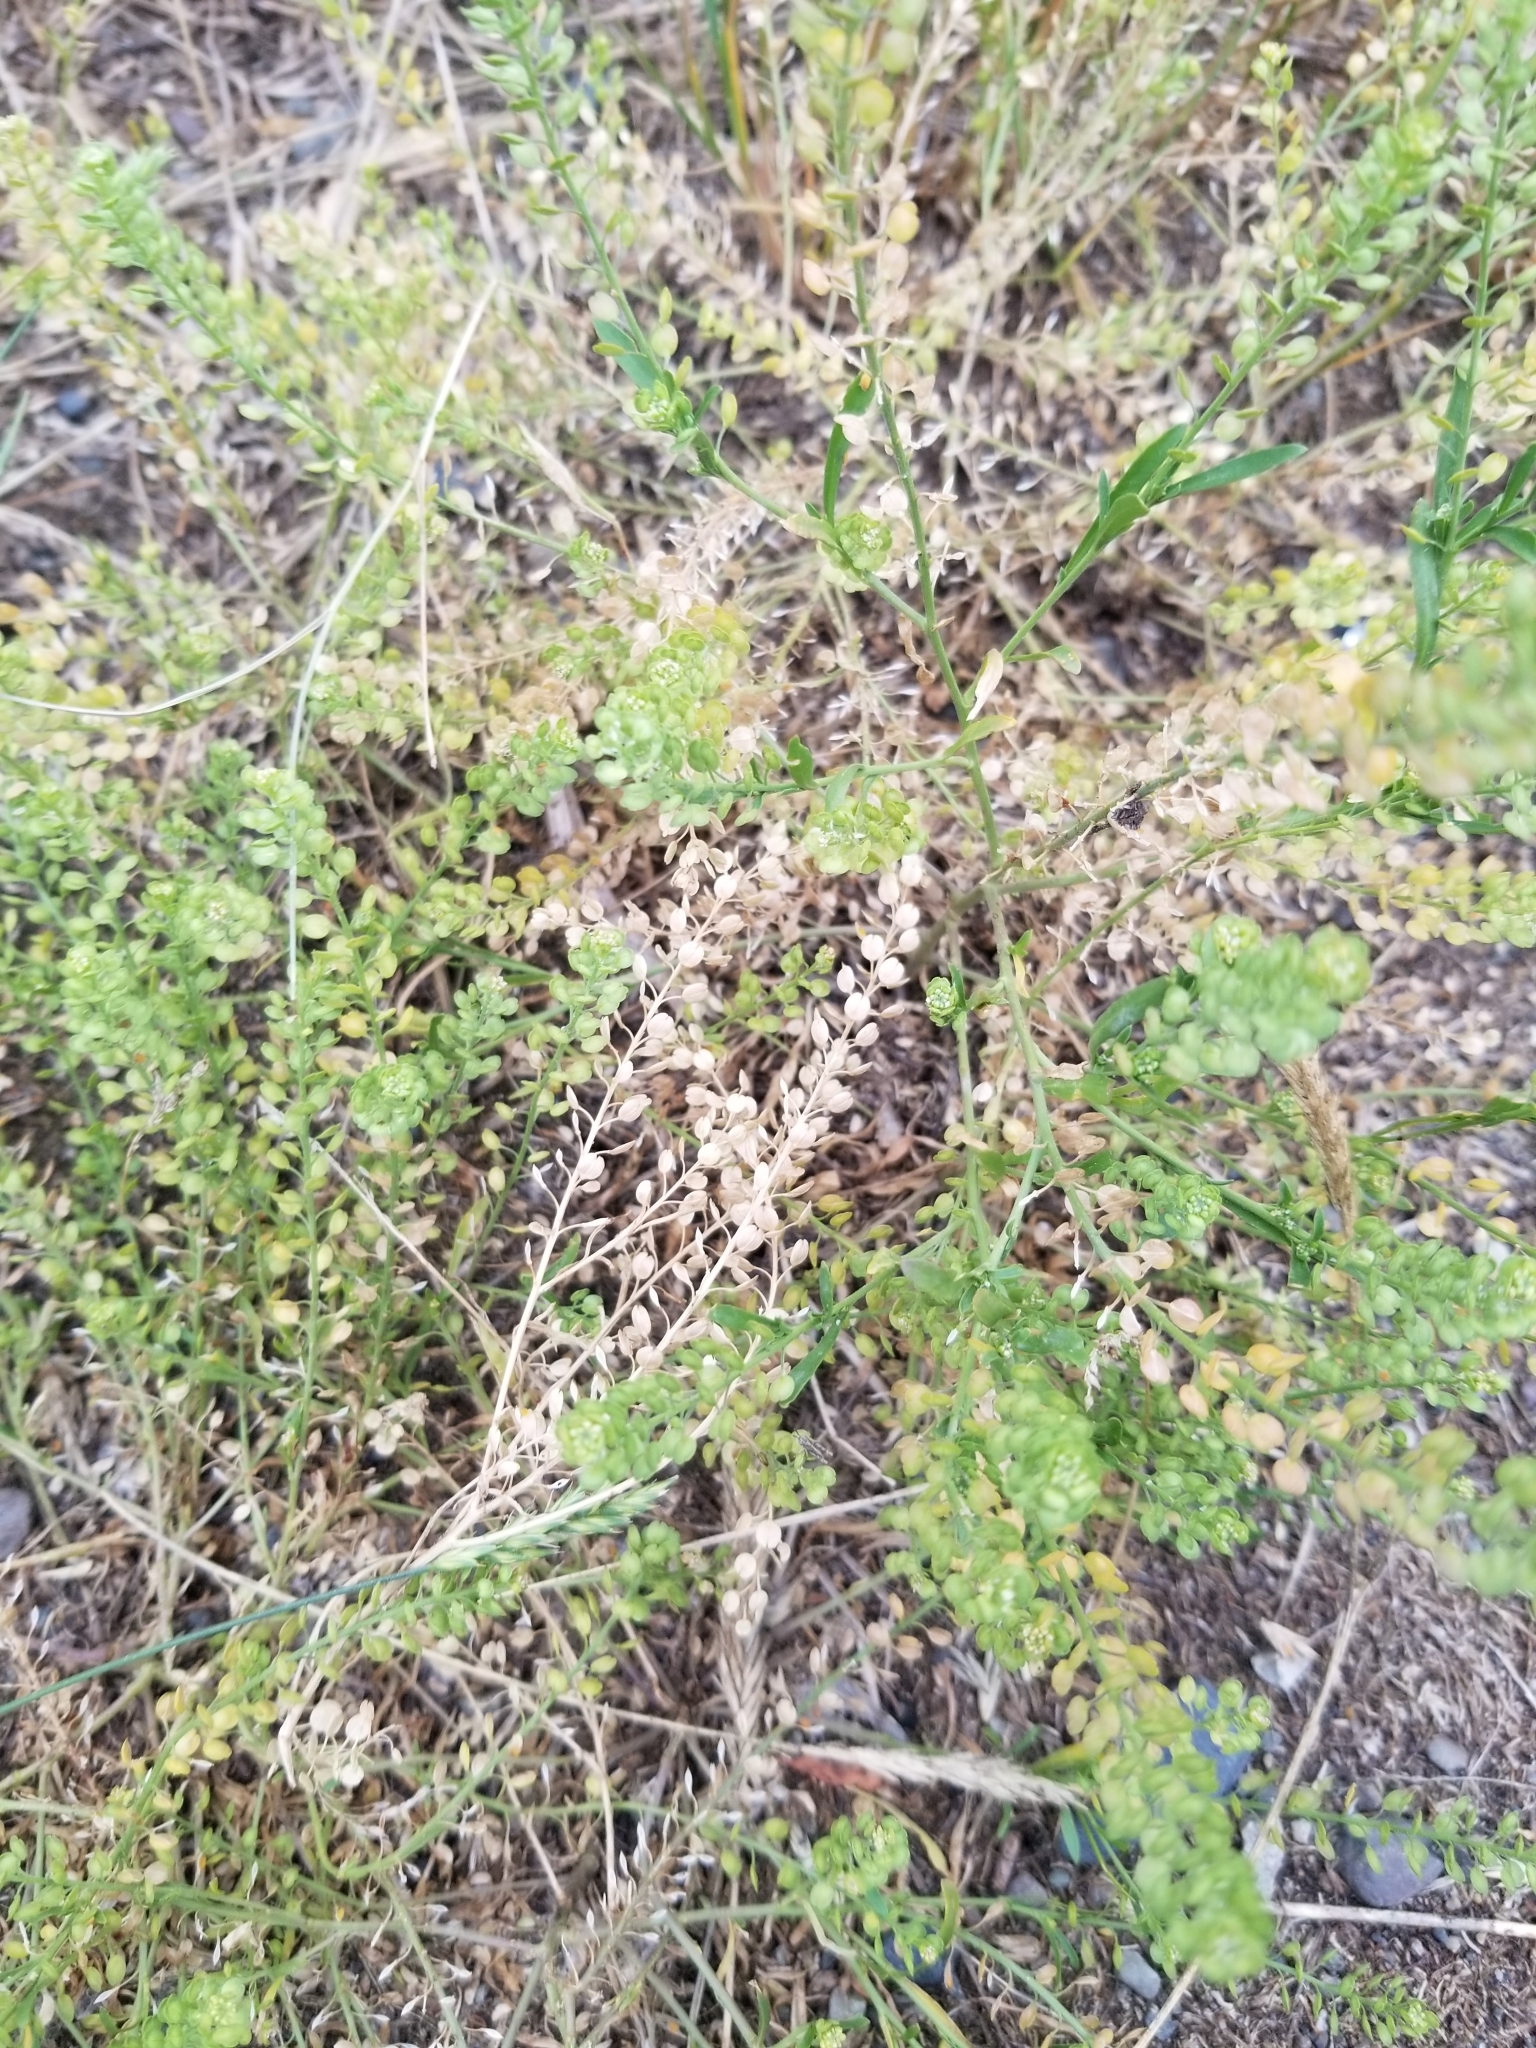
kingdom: Plantae
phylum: Tracheophyta
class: Magnoliopsida
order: Brassicales
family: Brassicaceae
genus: Lepidium
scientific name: Lepidium densiflorum
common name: Miner's pepperwort
